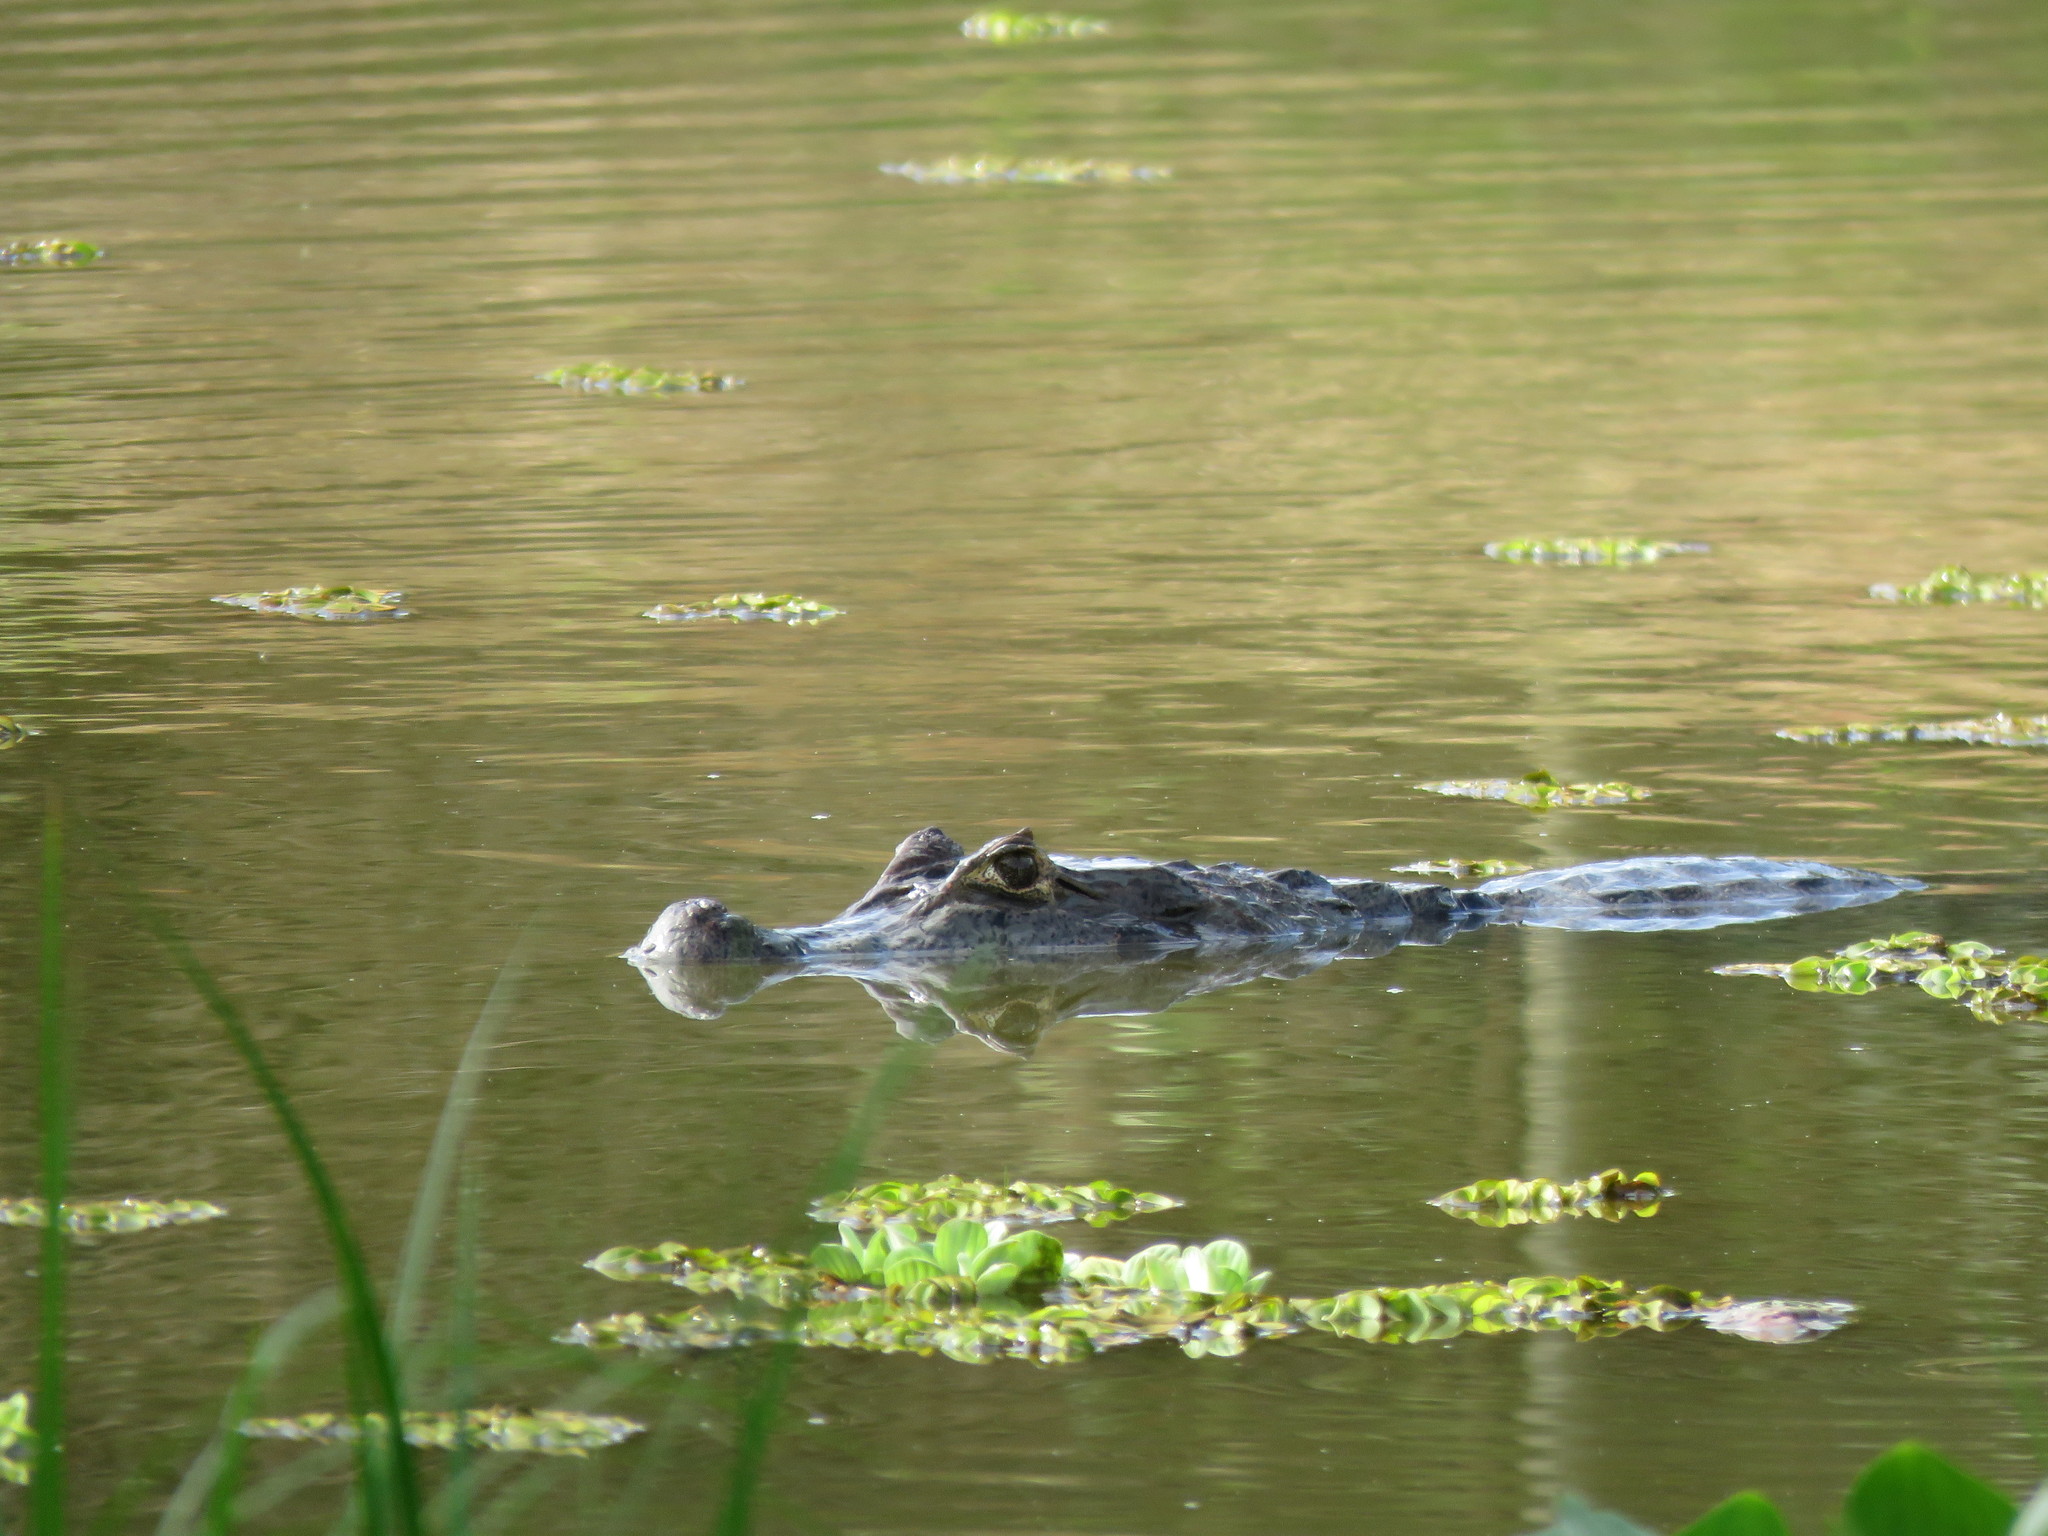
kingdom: Animalia
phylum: Chordata
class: Crocodylia
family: Alligatoridae
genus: Caiman
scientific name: Caiman yacare
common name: Yacare caiman
